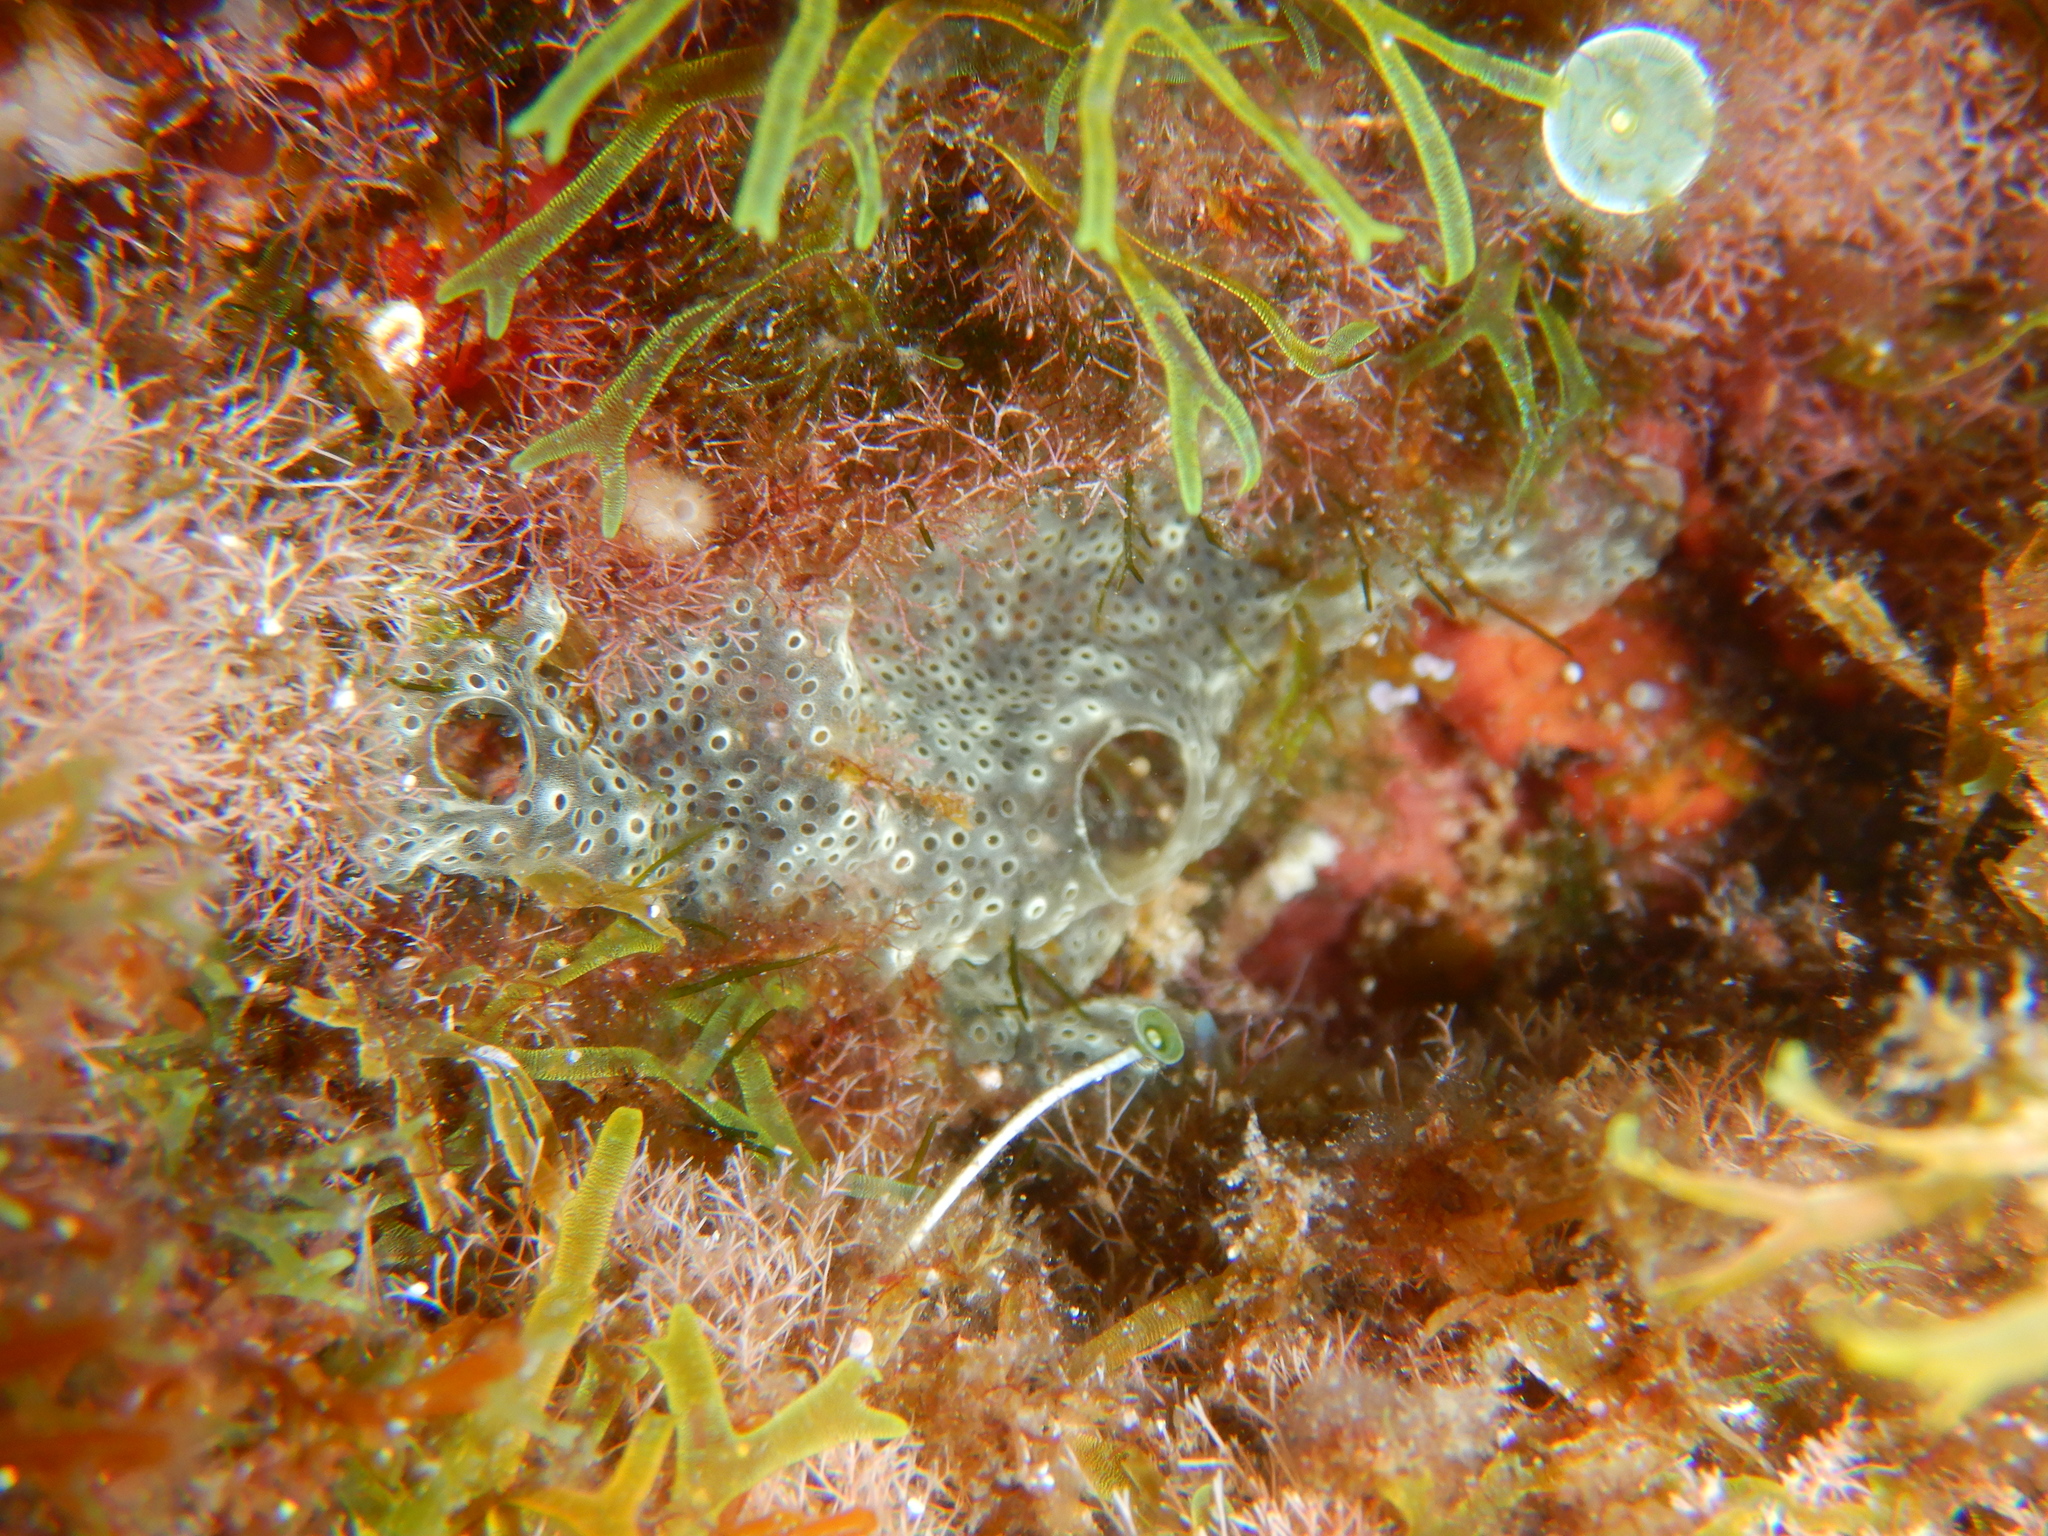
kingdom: Animalia
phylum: Chordata
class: Ascidiacea
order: Aplousobranchia
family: Didemnidae
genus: Diplosoma
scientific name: Diplosoma spongiforme
